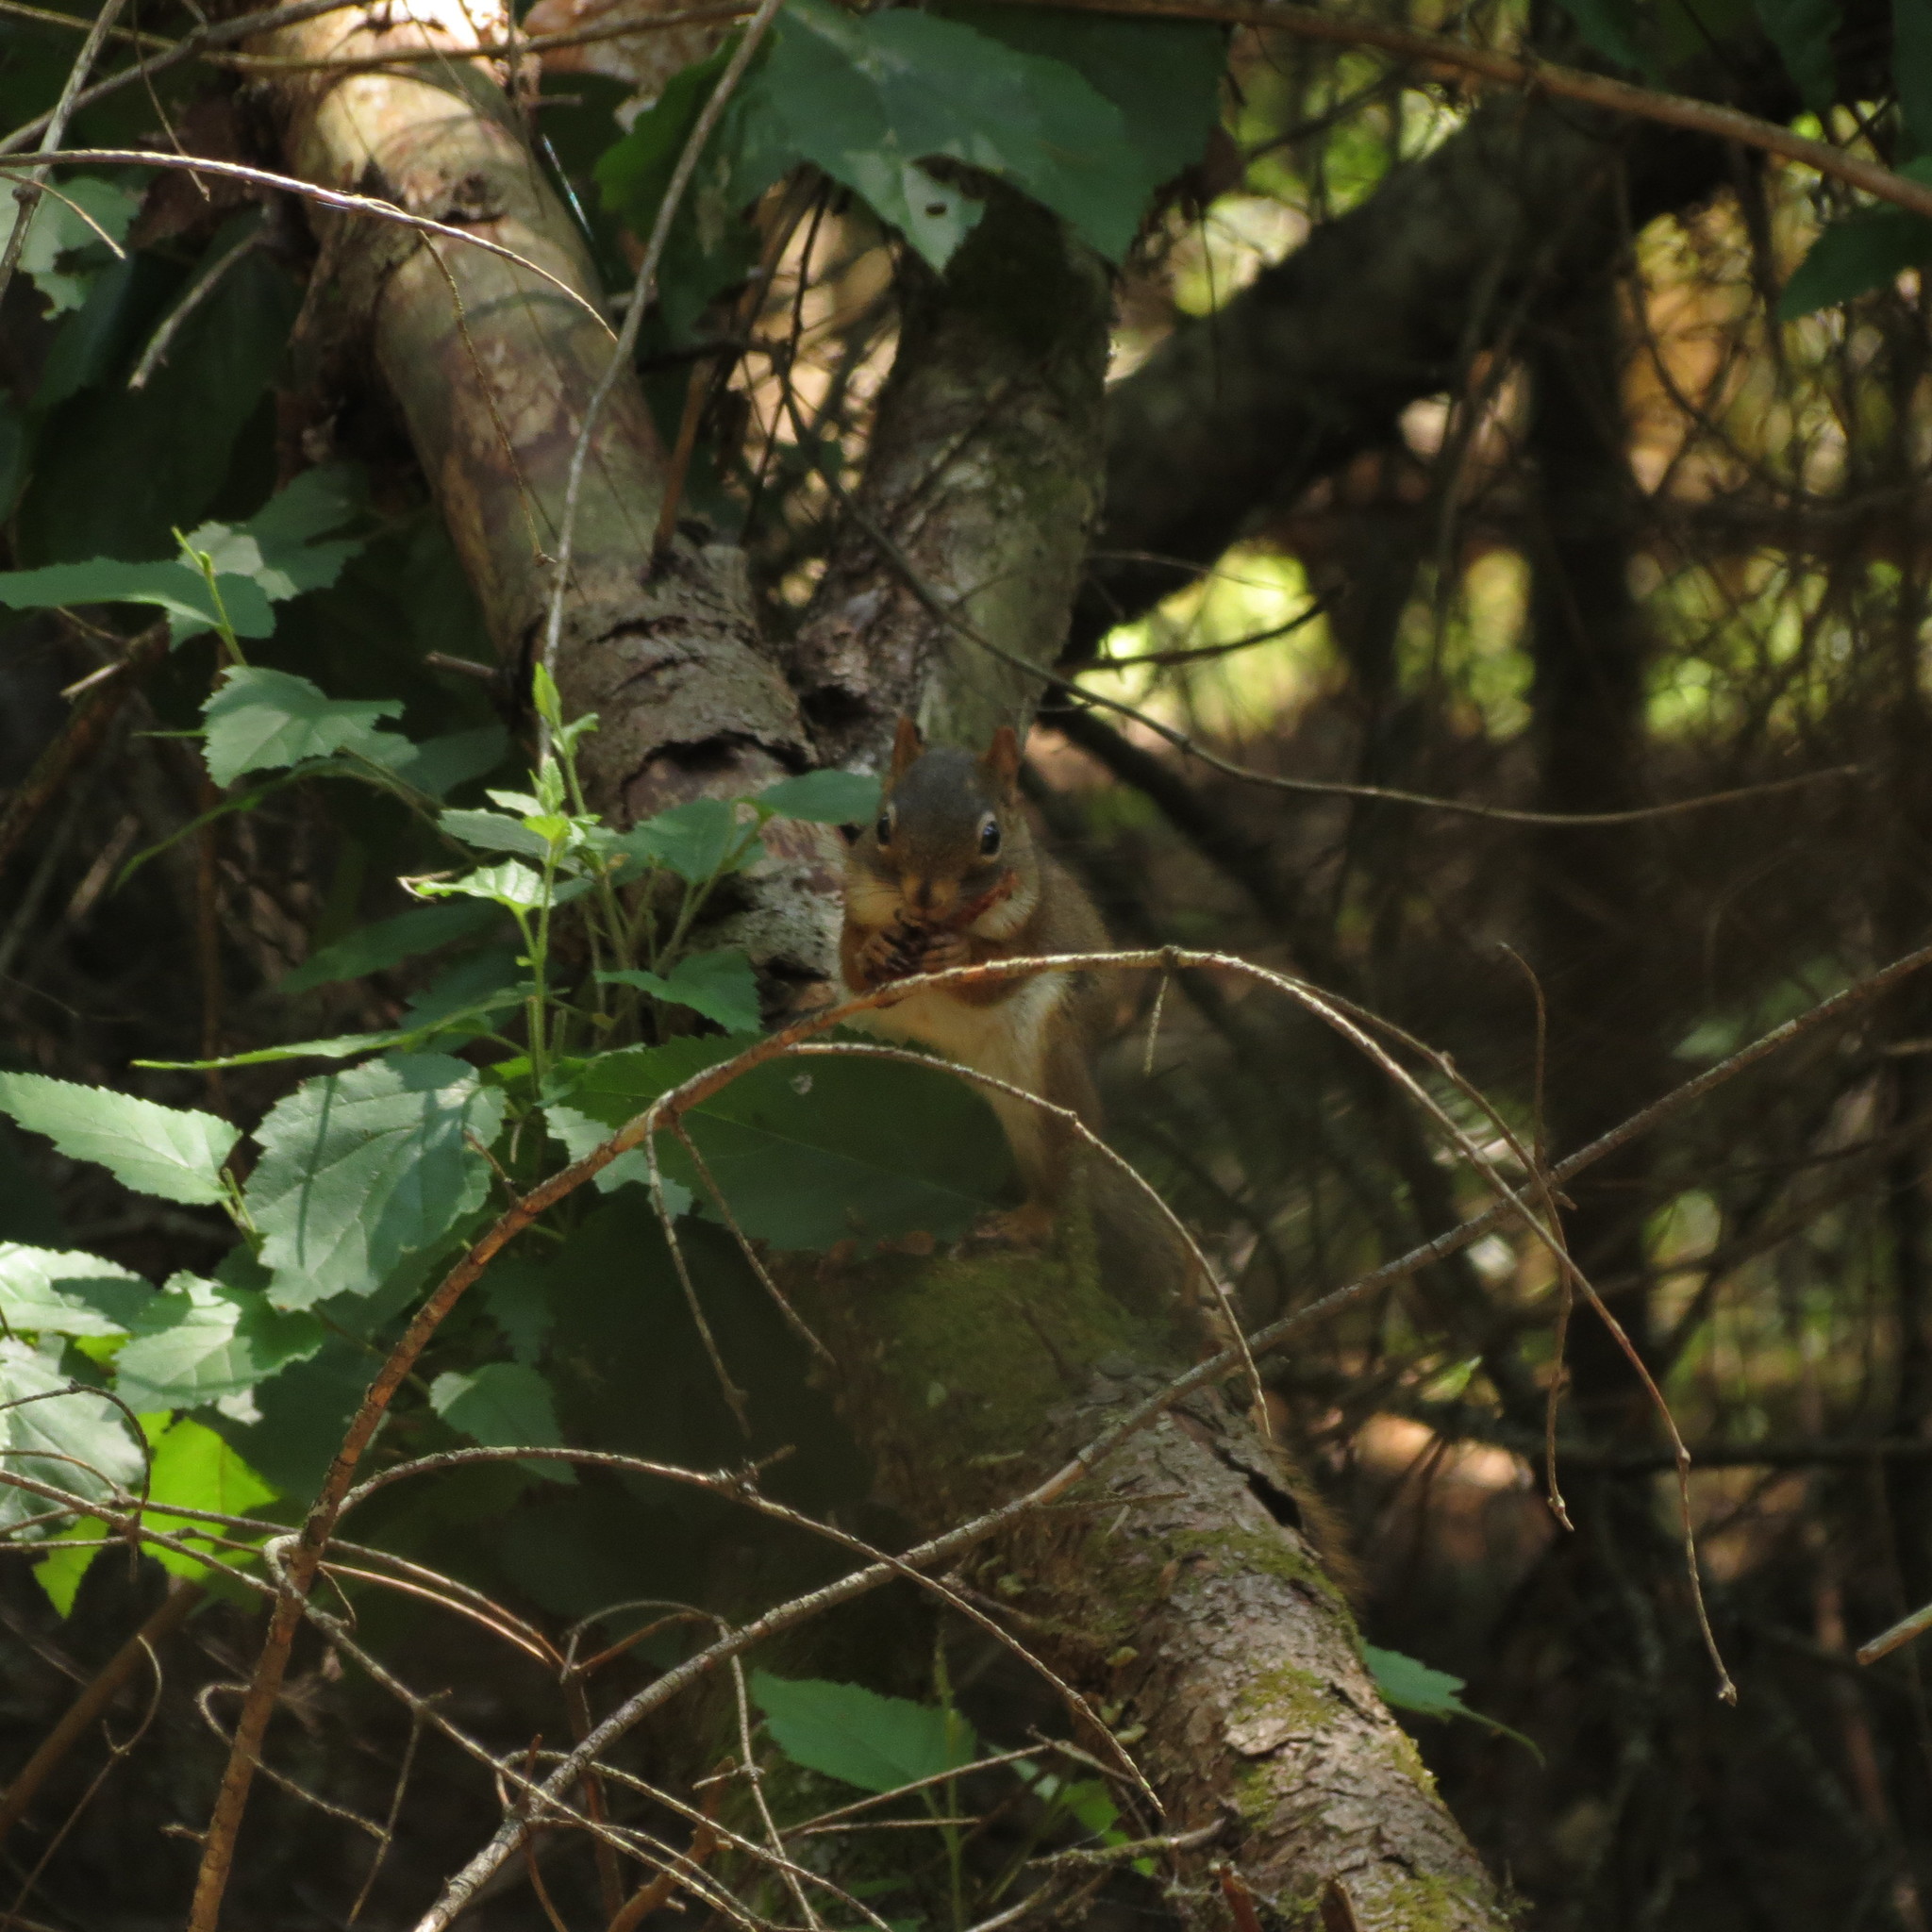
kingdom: Animalia
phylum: Chordata
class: Mammalia
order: Rodentia
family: Sciuridae
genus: Tamiasciurus
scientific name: Tamiasciurus hudsonicus
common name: Red squirrel
